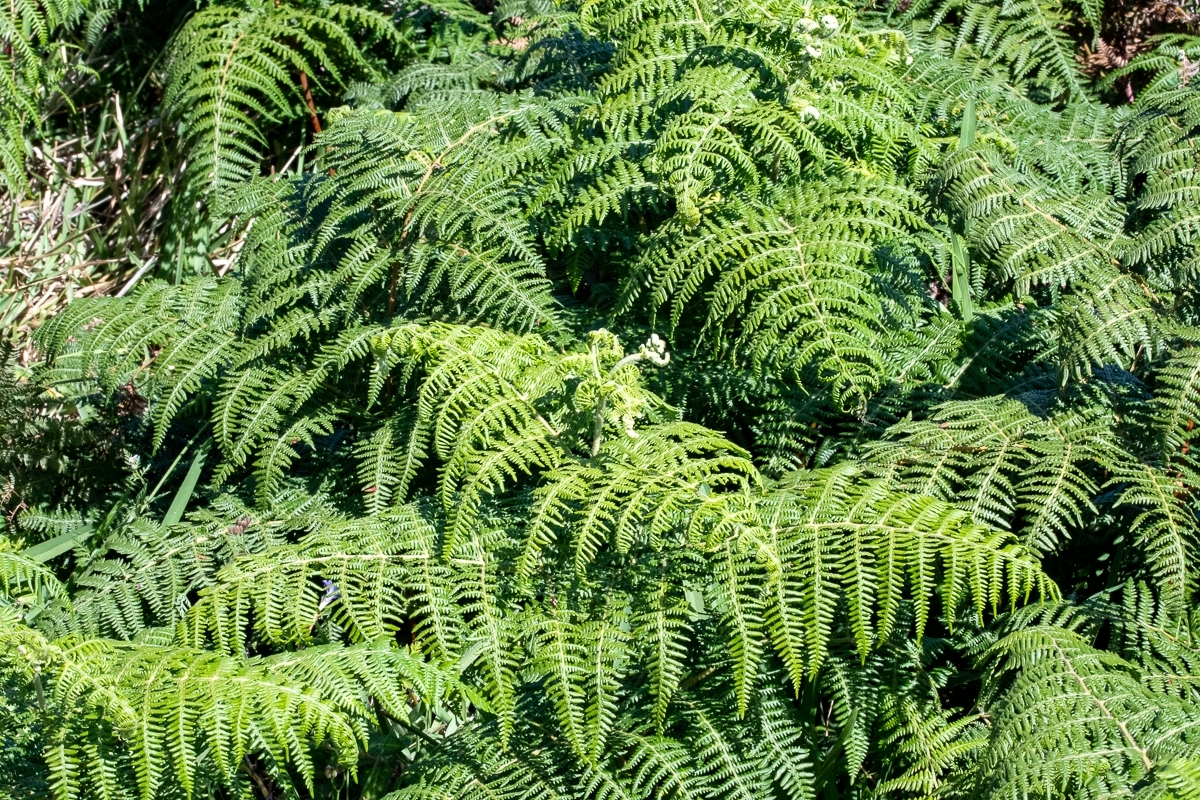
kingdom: Plantae
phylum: Tracheophyta
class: Polypodiopsida
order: Polypodiales
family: Dennstaedtiaceae
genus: Pteridium
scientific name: Pteridium aquilinum
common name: Bracken
